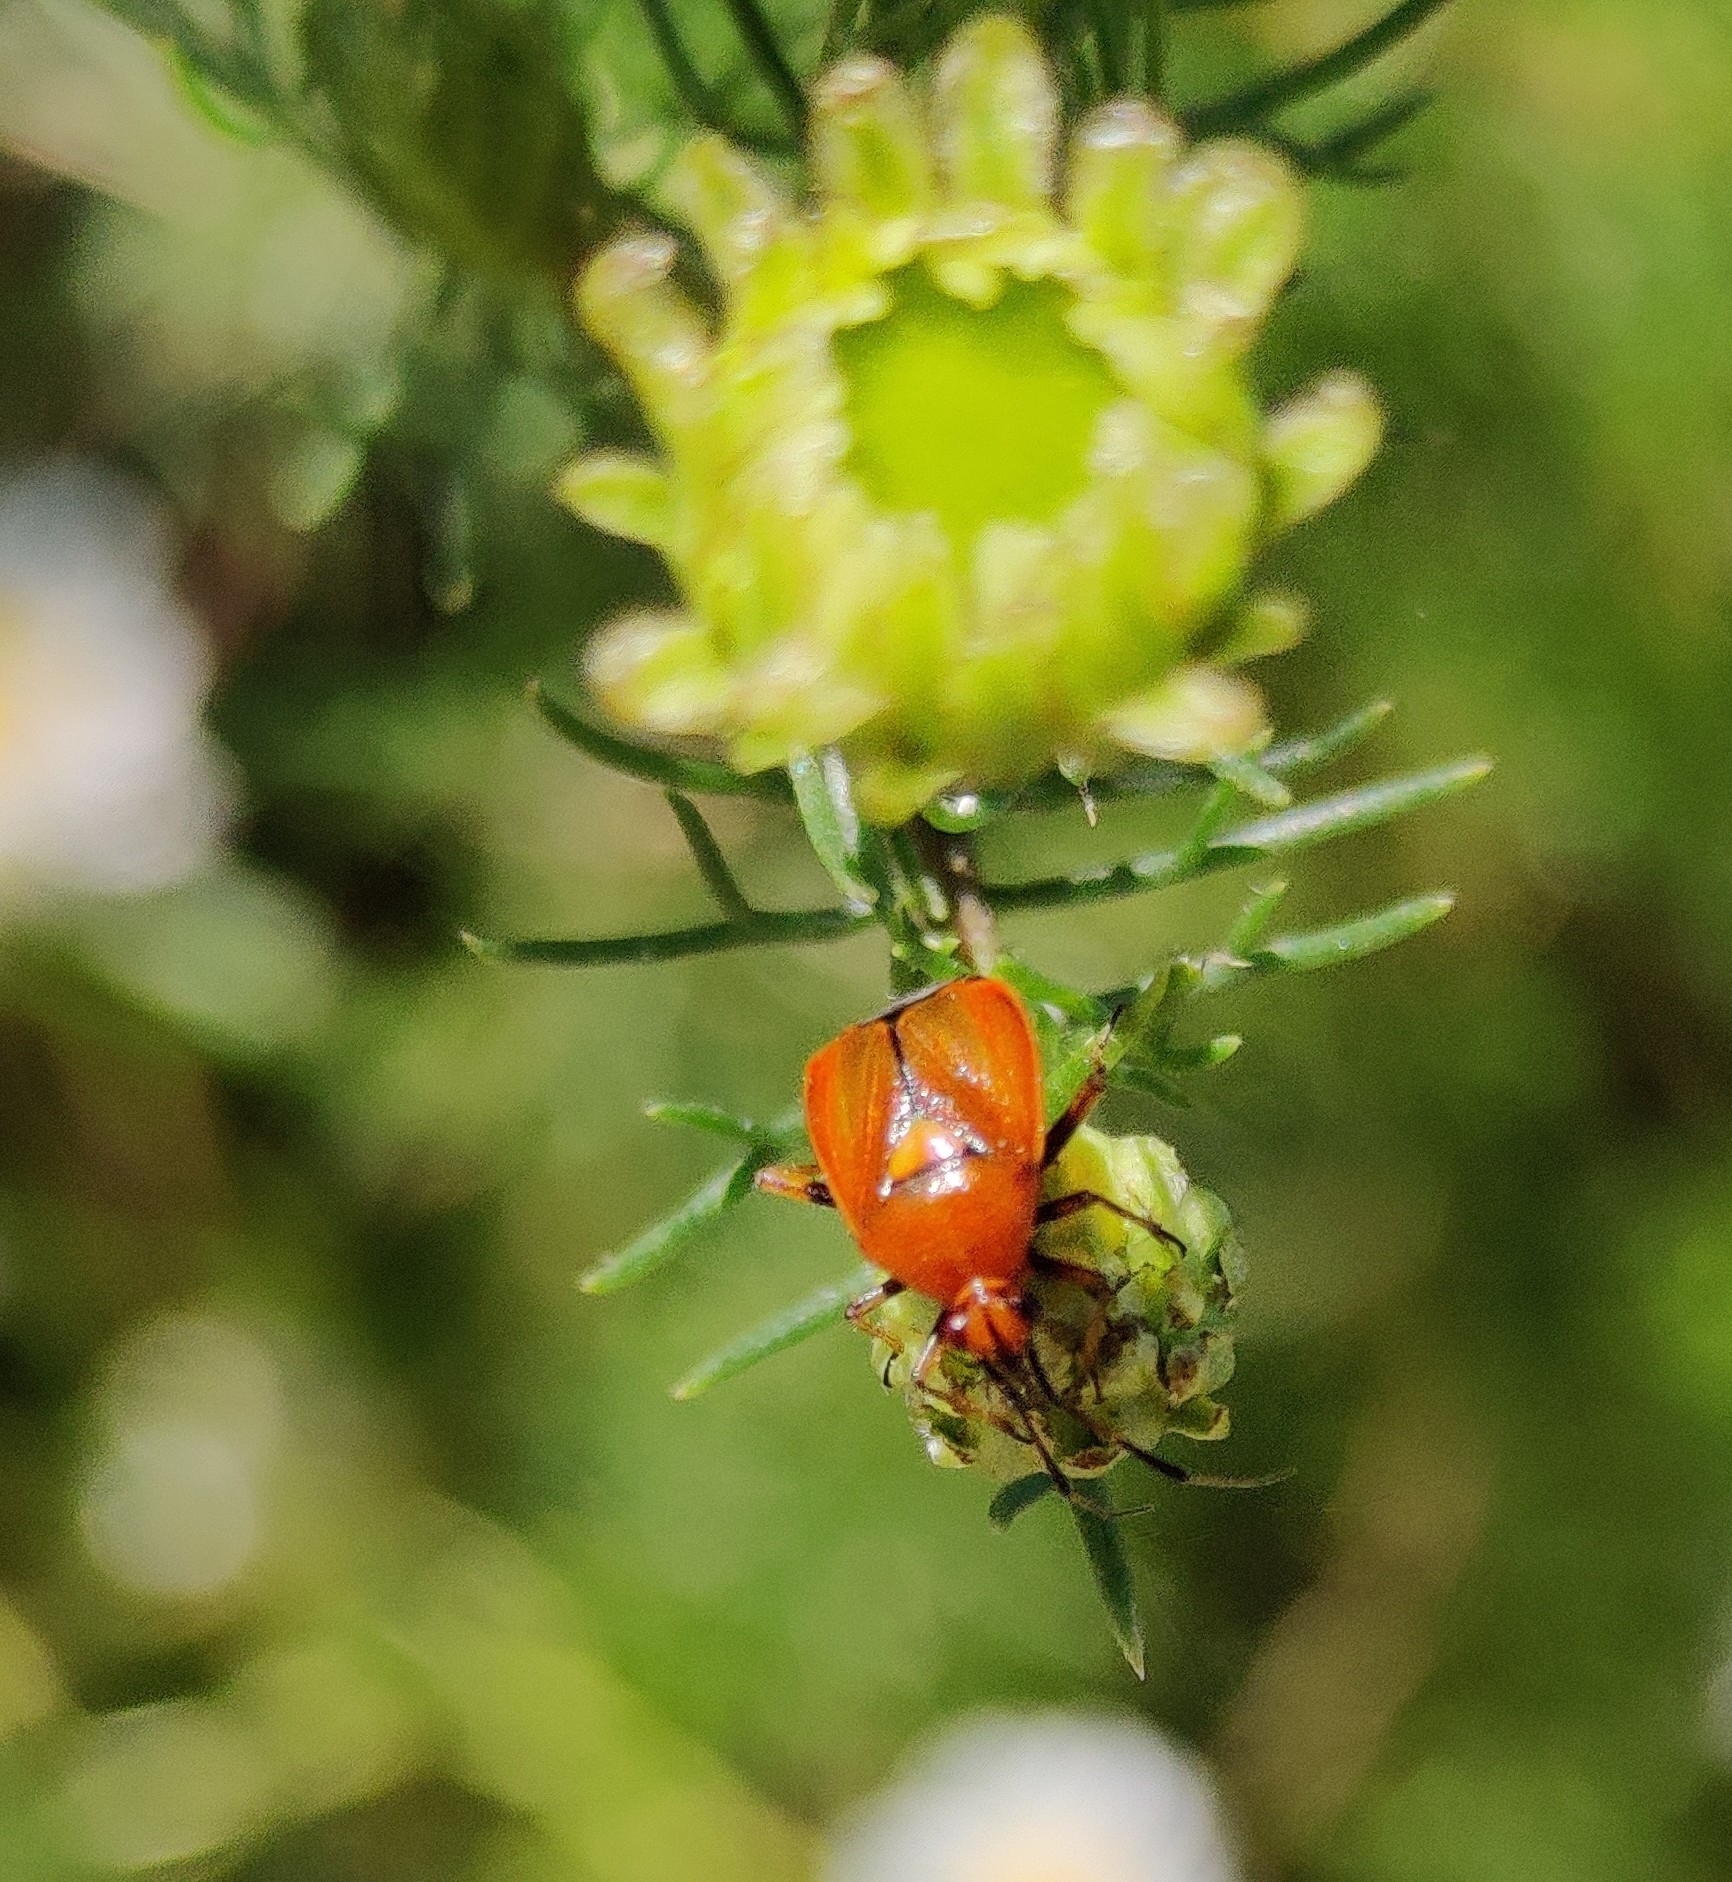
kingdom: Animalia
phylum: Arthropoda
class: Insecta
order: Hemiptera
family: Miridae
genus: Deraeocoris
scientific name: Deraeocoris ruber
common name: Plant bug
